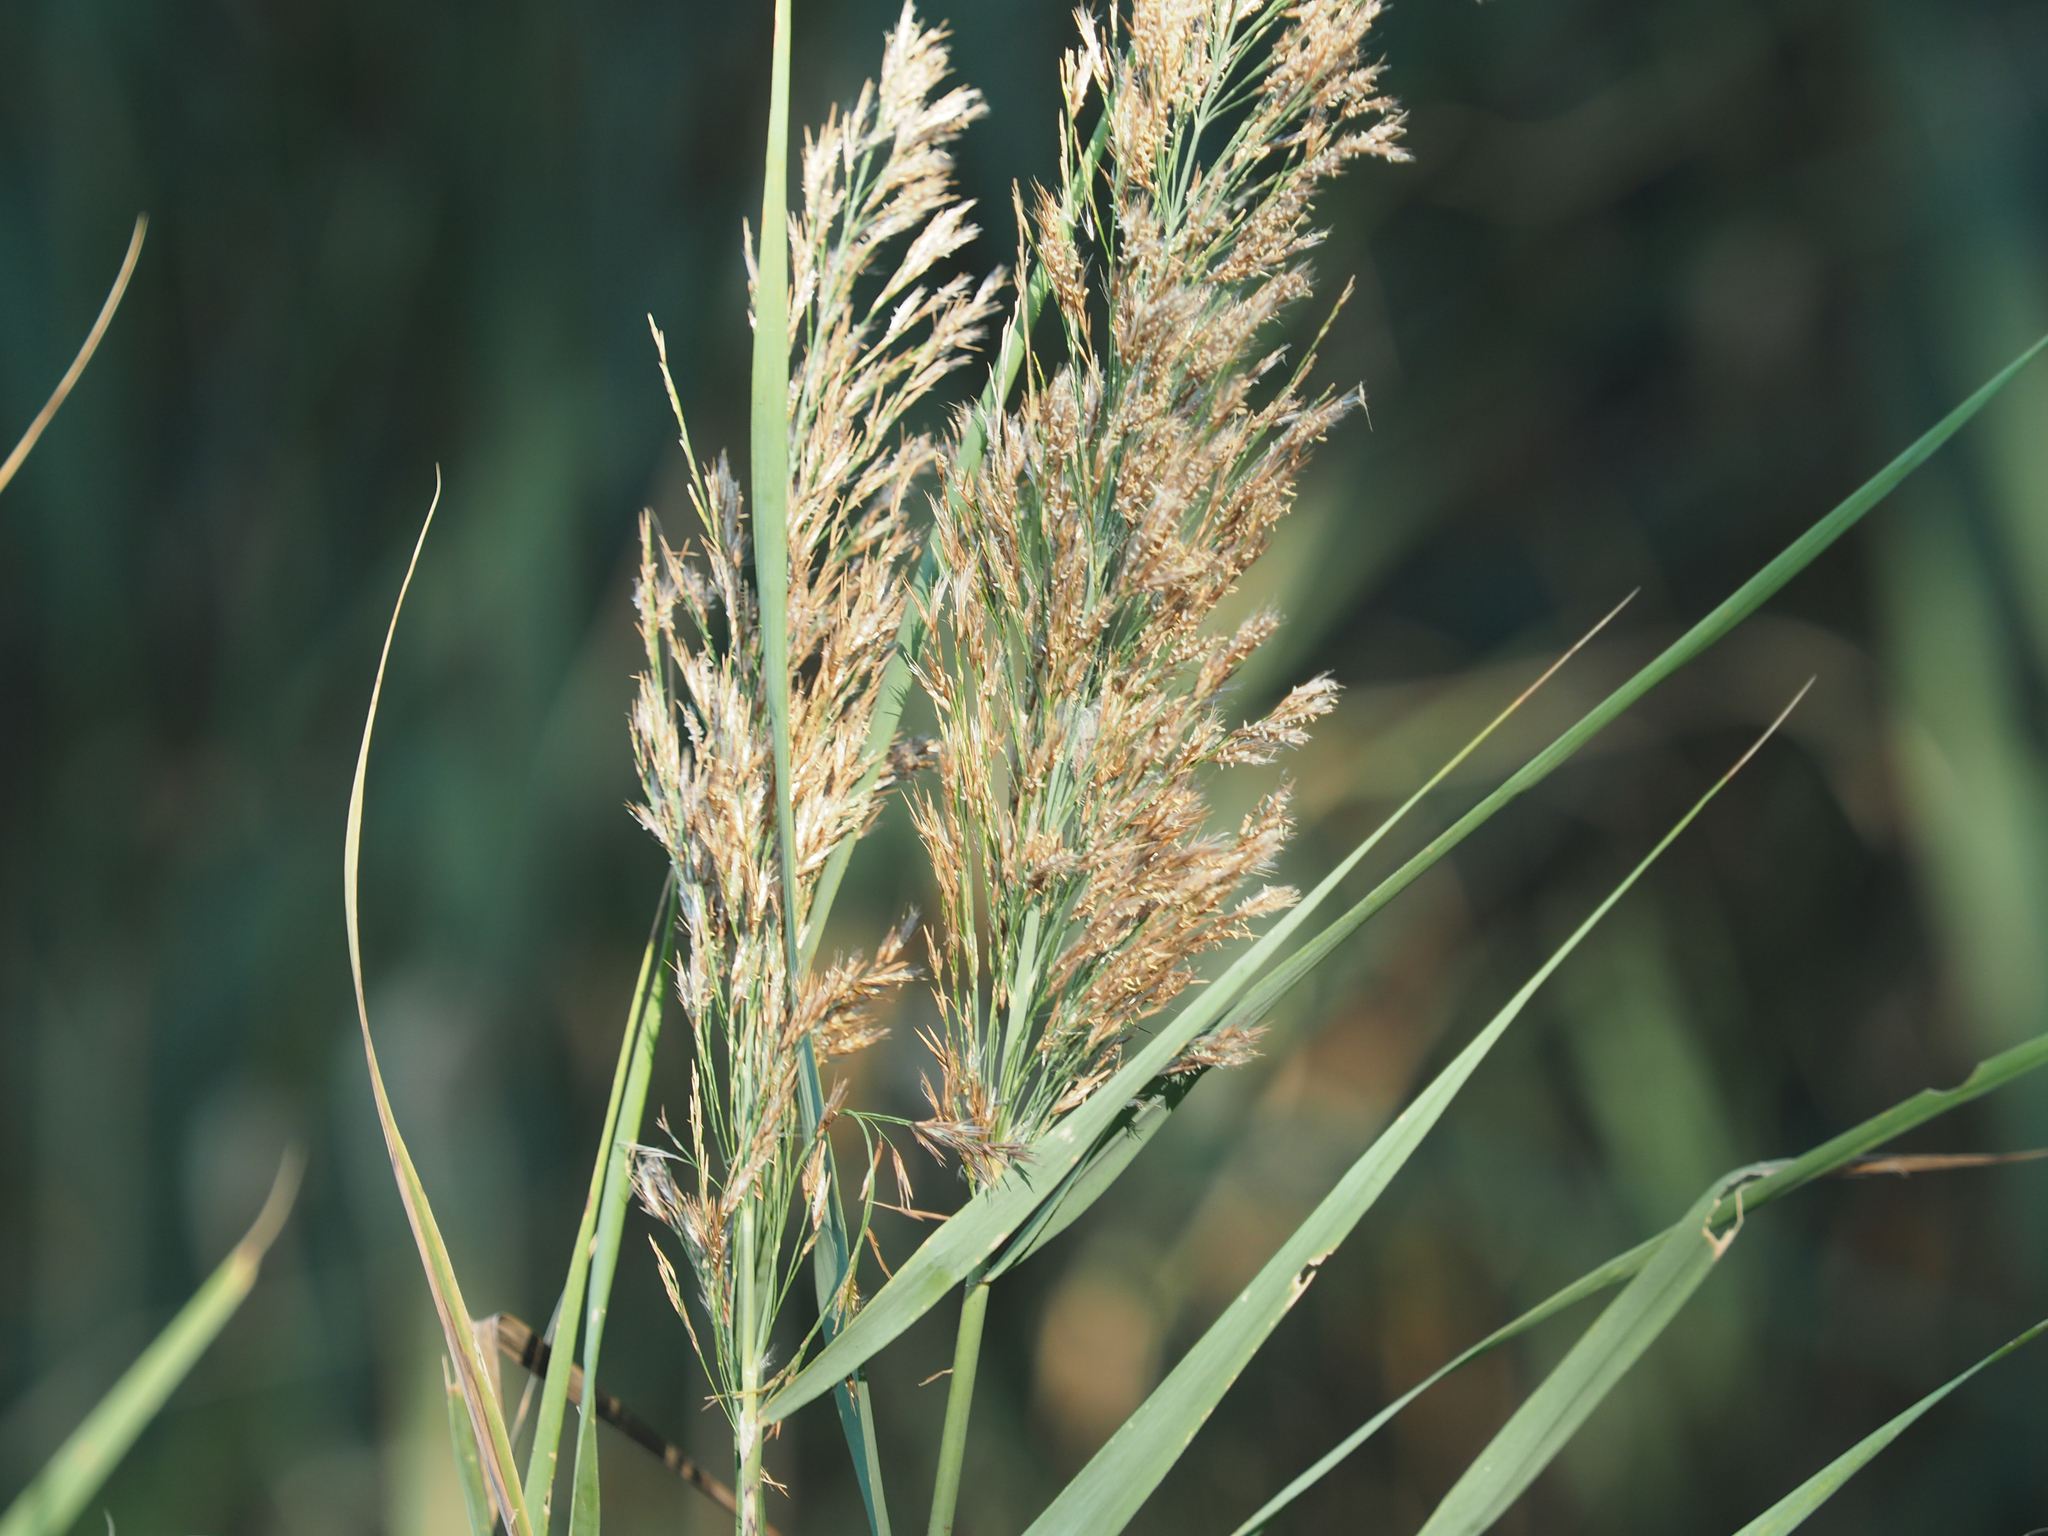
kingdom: Plantae
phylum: Tracheophyta
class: Liliopsida
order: Poales
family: Poaceae
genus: Phragmites
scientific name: Phragmites australis
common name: Common reed
